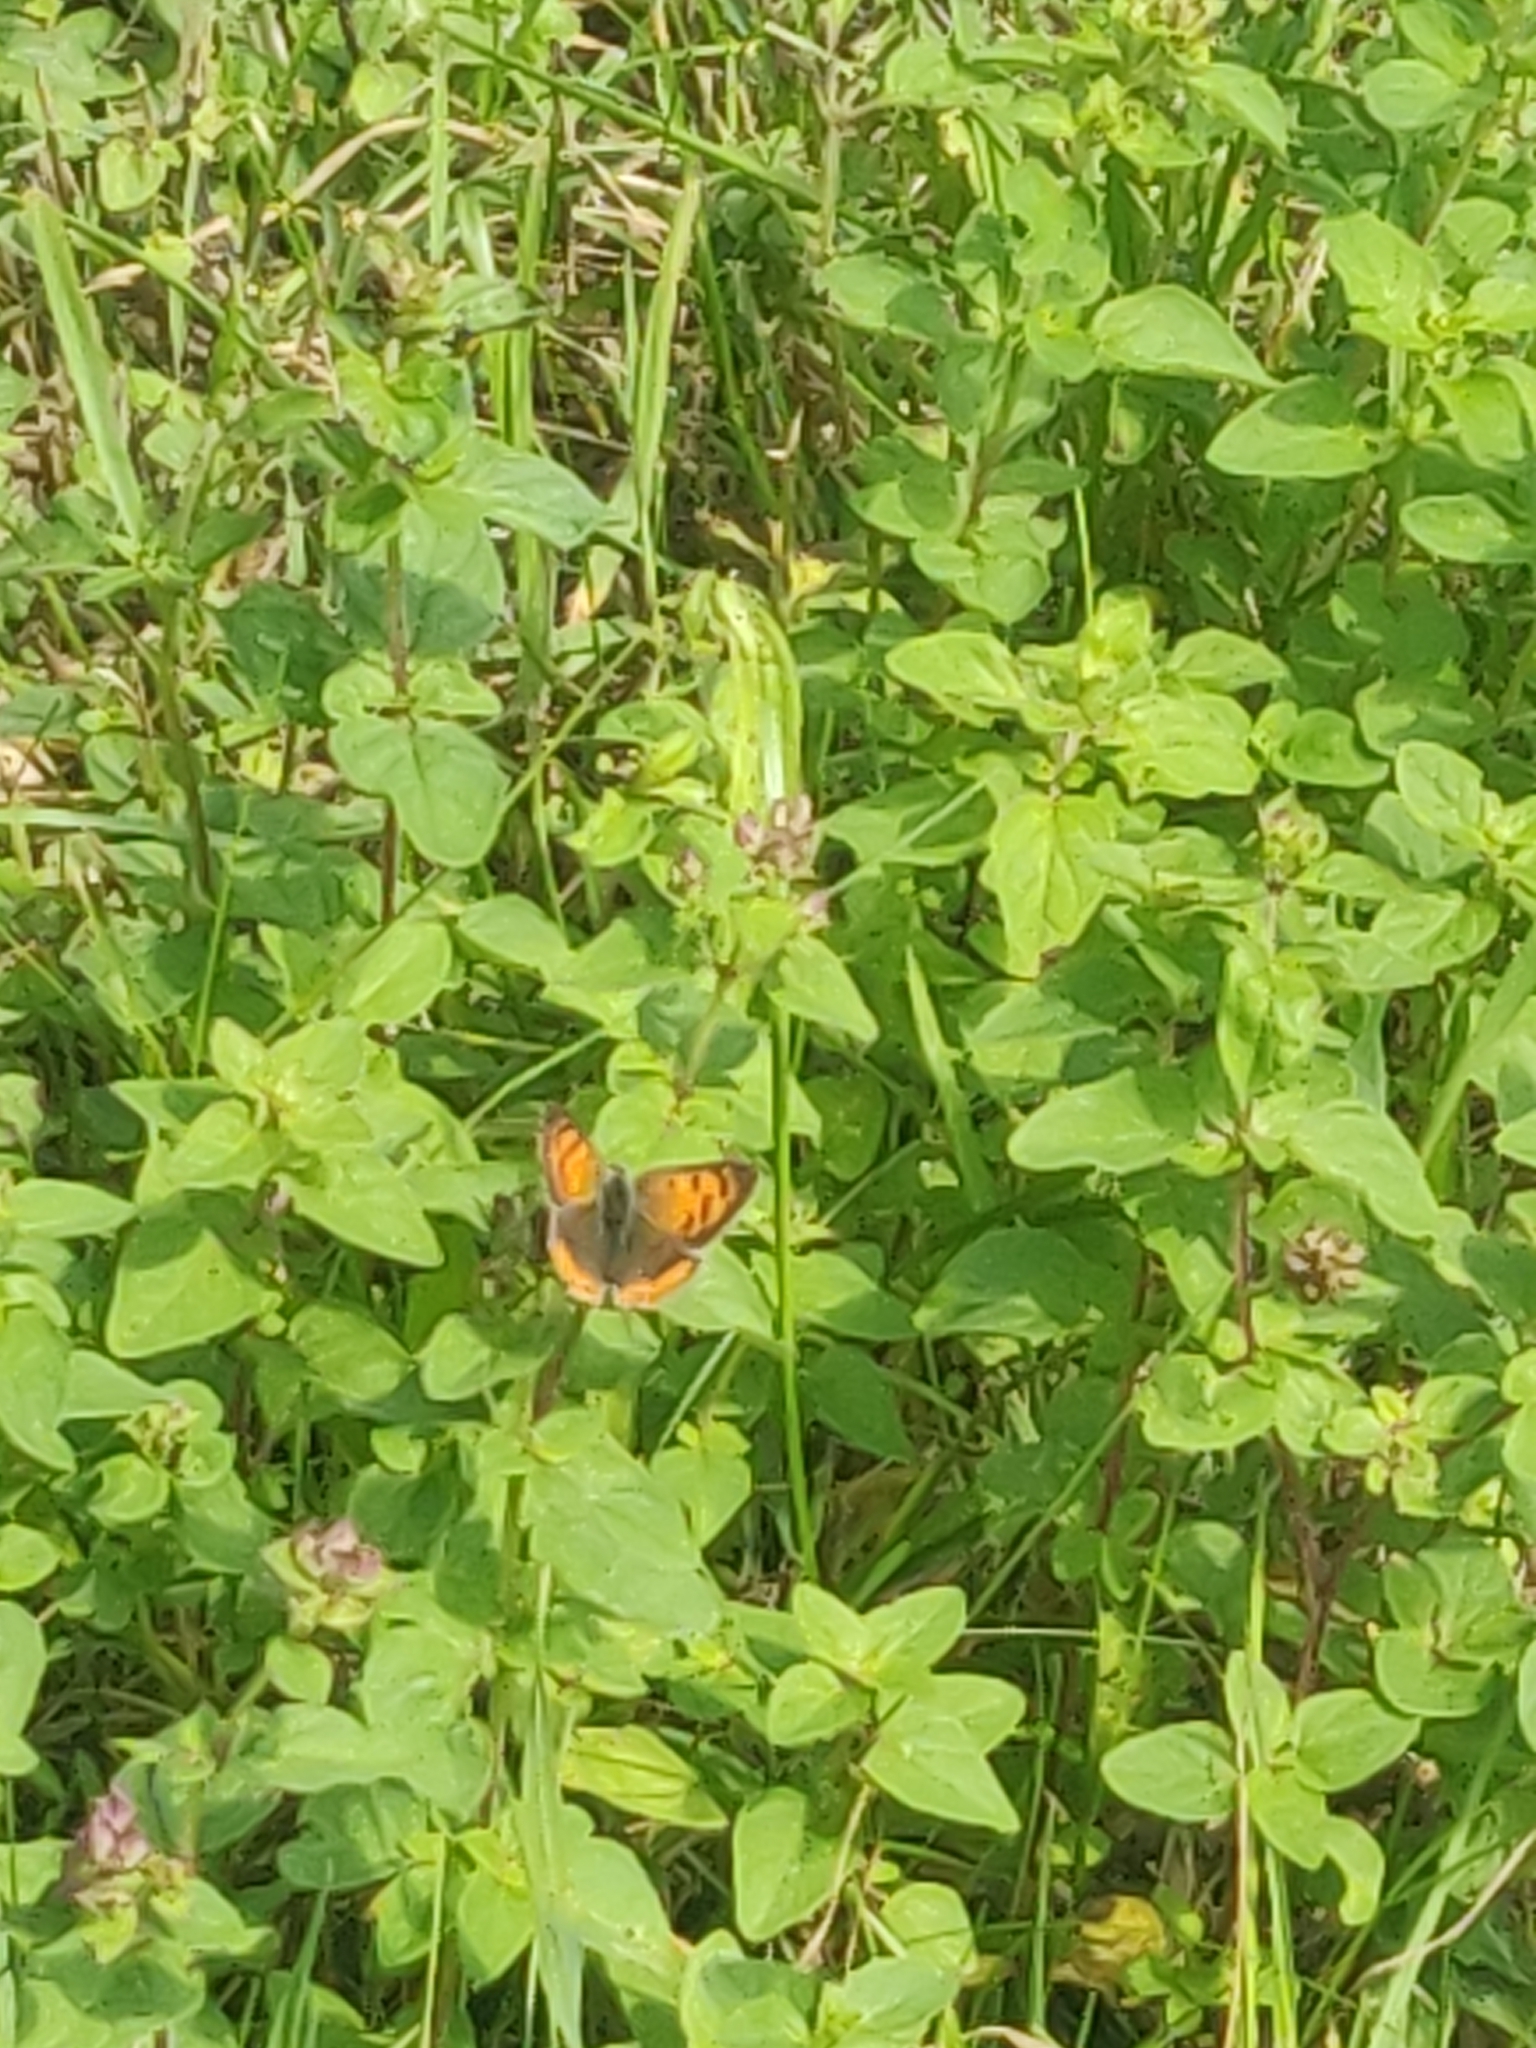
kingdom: Animalia
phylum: Arthropoda
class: Insecta
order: Lepidoptera
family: Lycaenidae
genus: Lycaena
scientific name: Lycaena phlaeas
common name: Small copper
